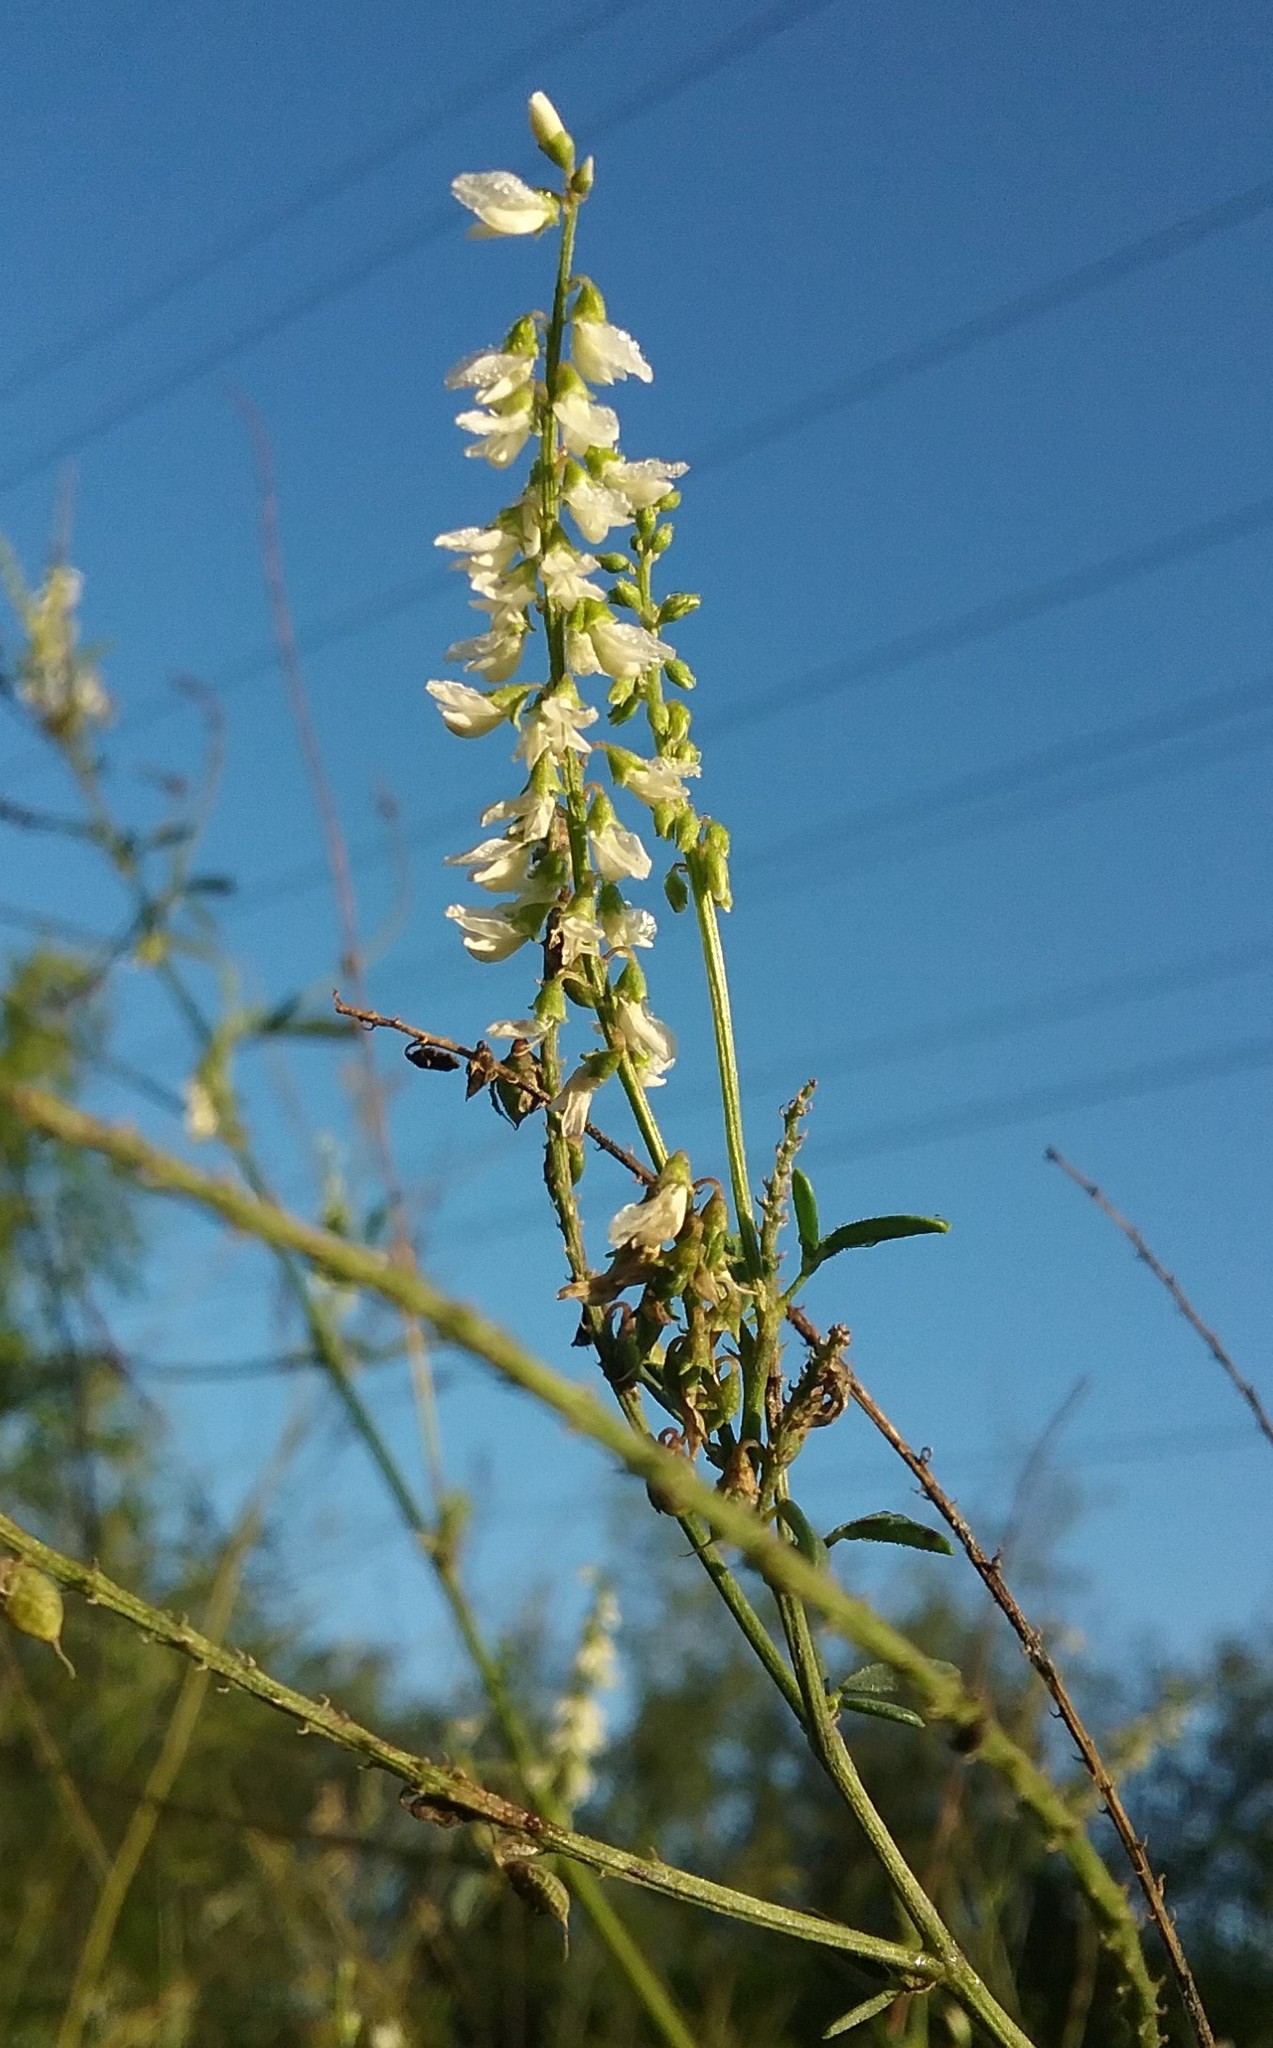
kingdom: Plantae
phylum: Tracheophyta
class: Magnoliopsida
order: Fabales
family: Fabaceae
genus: Melilotus
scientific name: Melilotus albus
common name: White melilot
